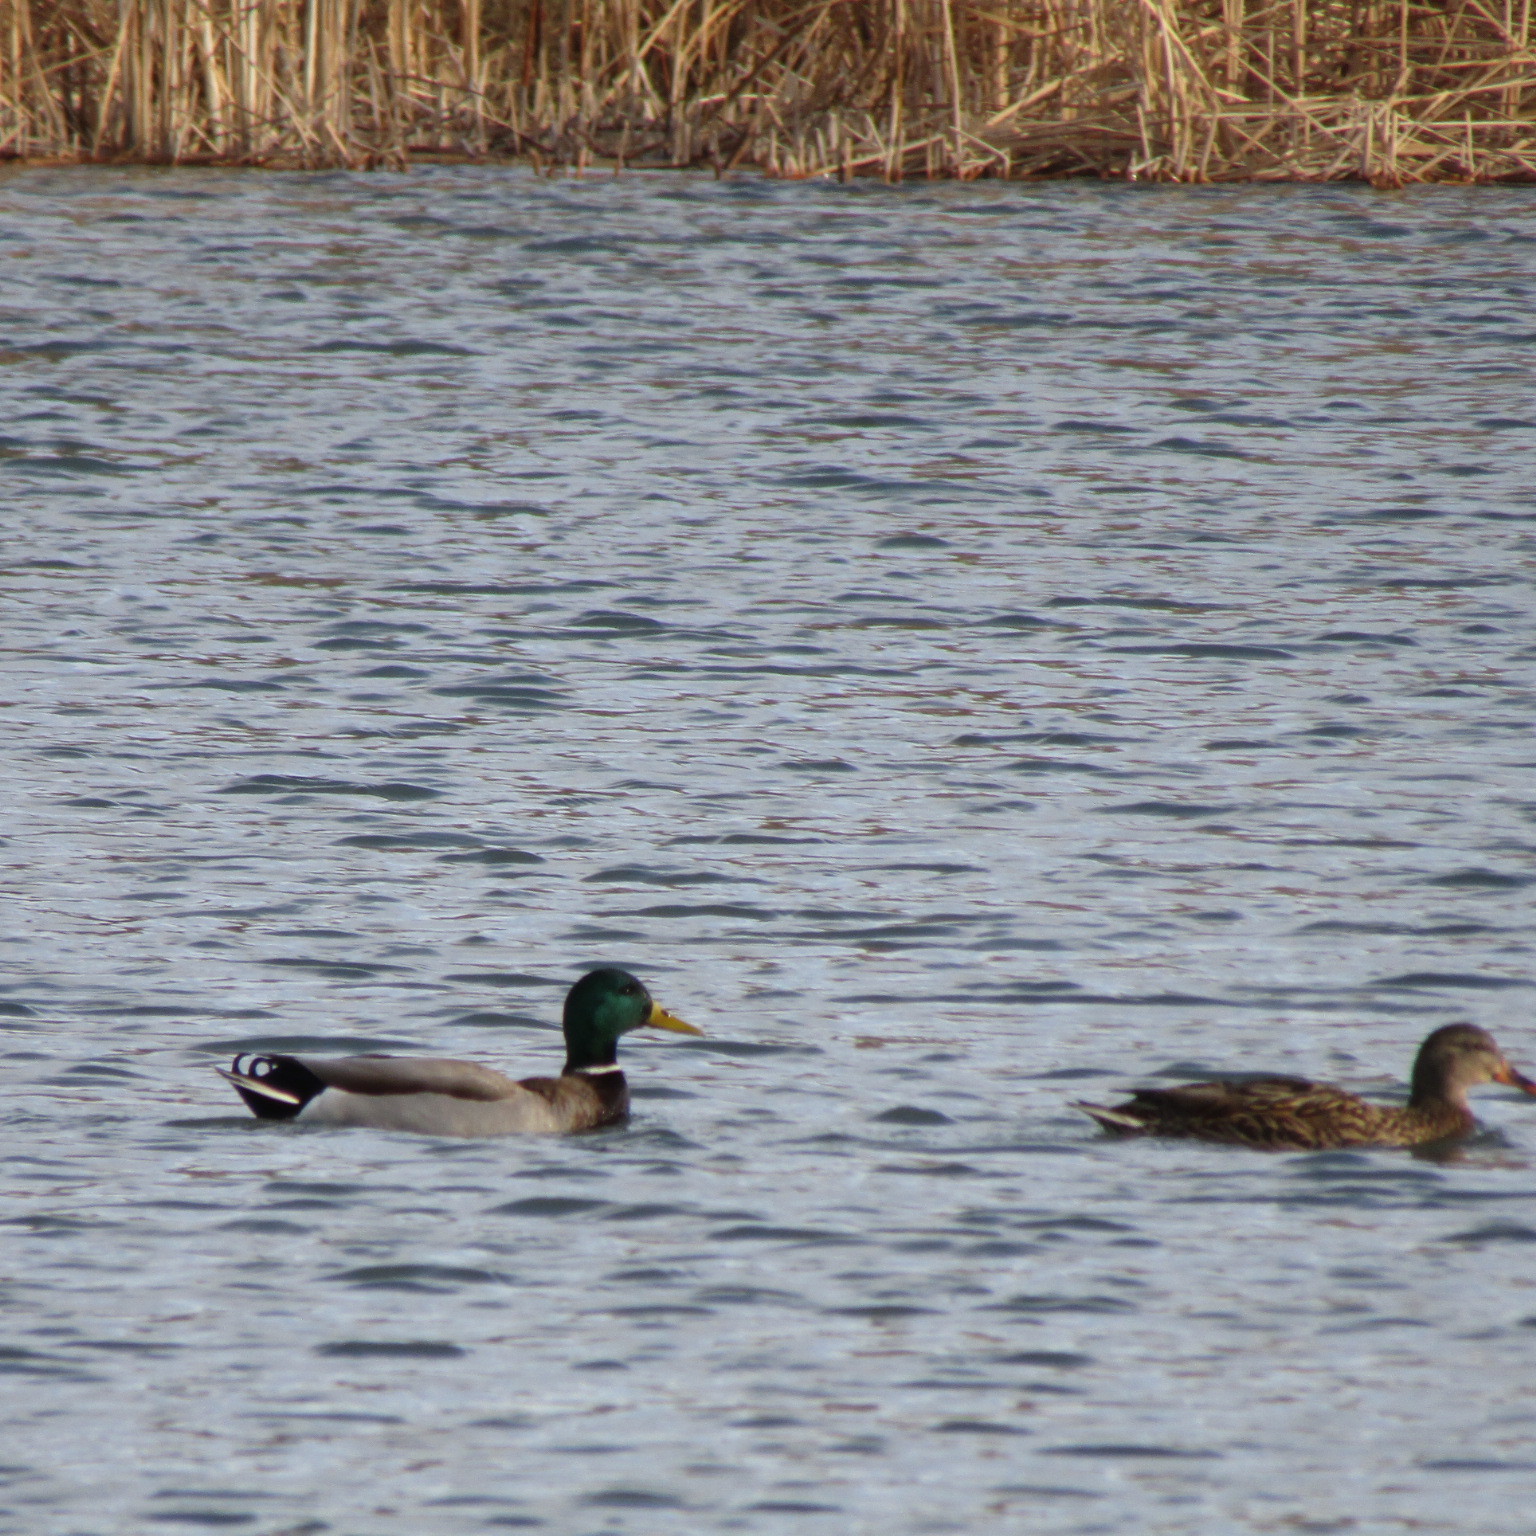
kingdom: Animalia
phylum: Chordata
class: Aves
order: Anseriformes
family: Anatidae
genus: Anas
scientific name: Anas platyrhynchos
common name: Mallard
